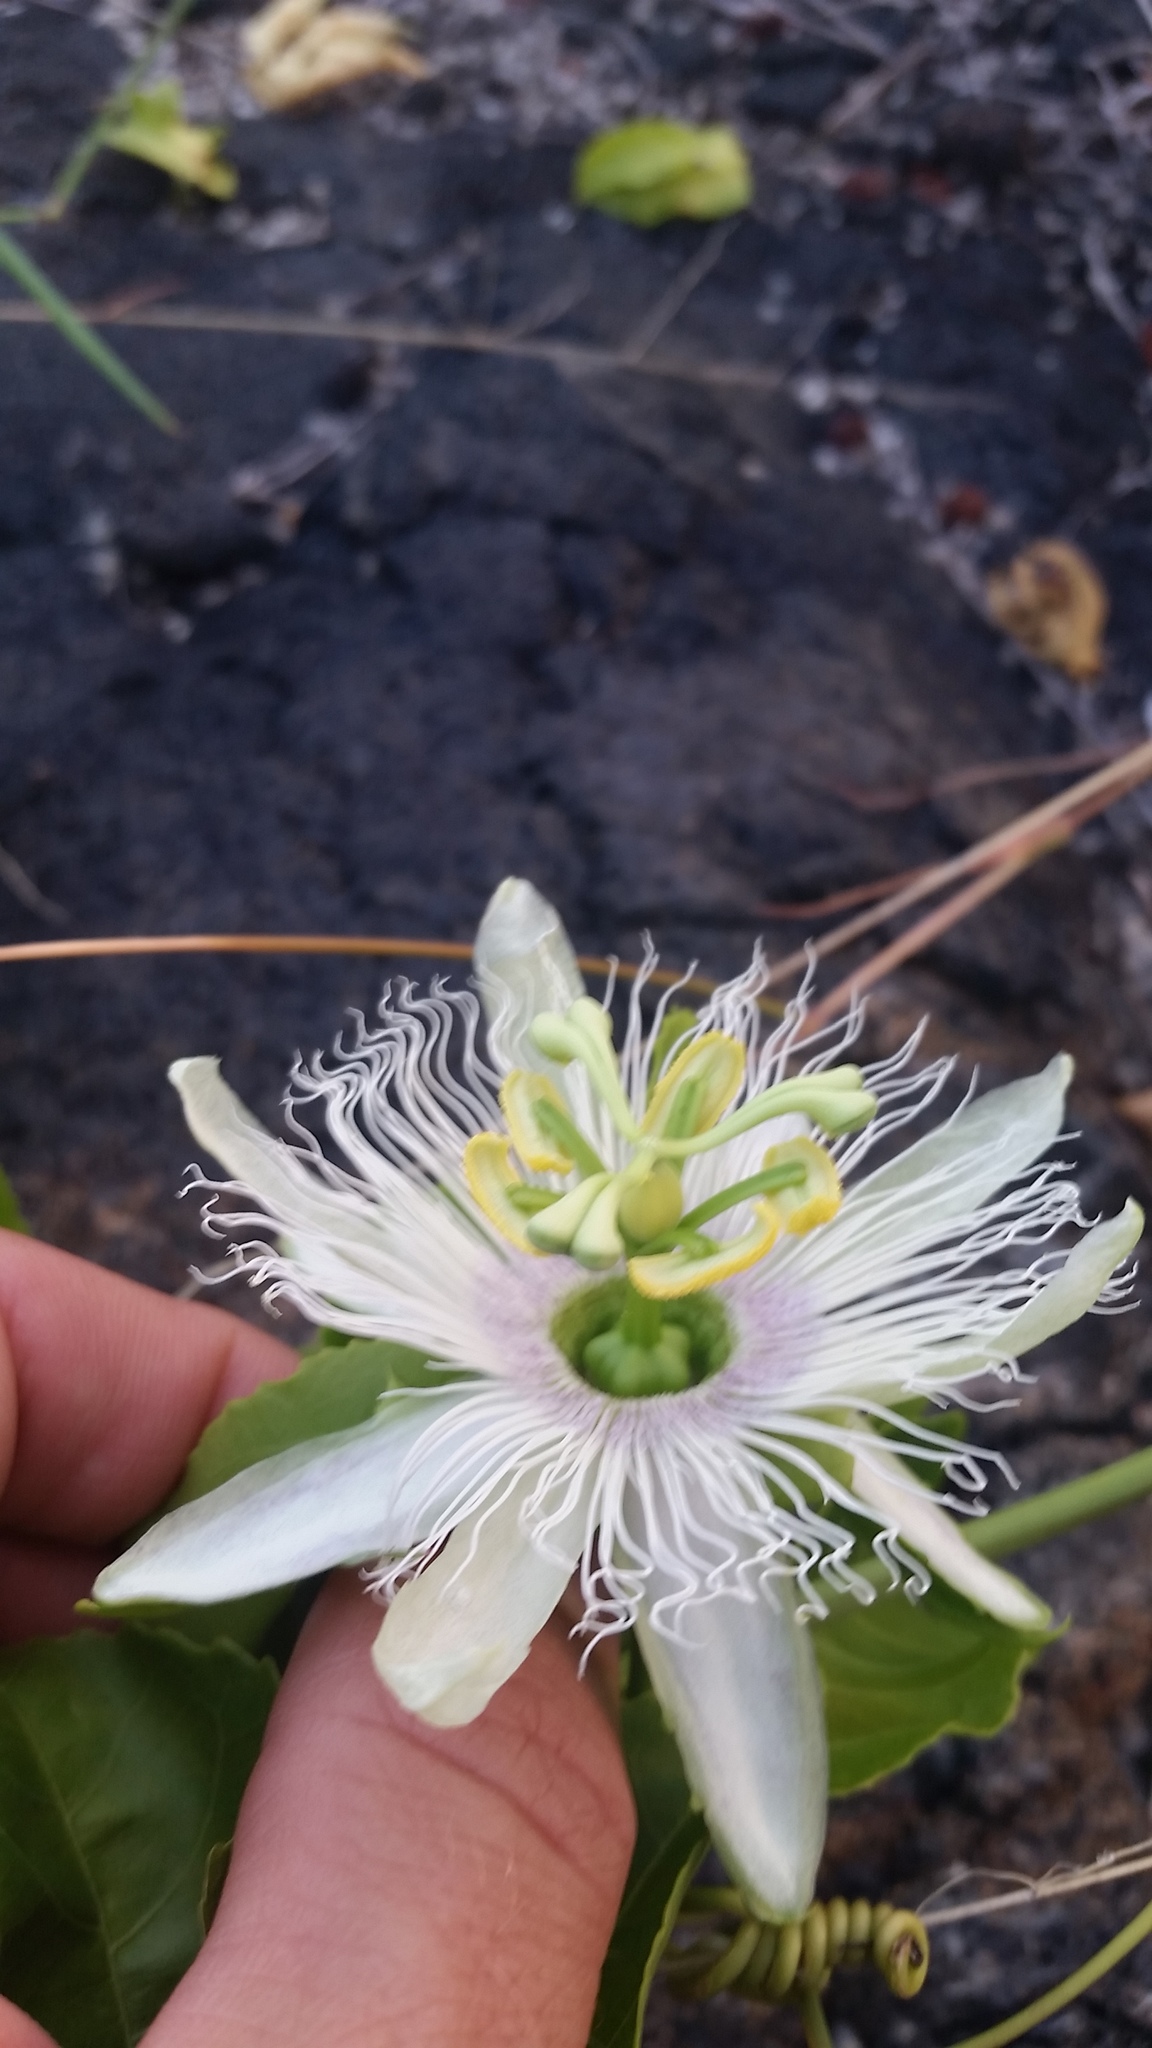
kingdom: Plantae
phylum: Tracheophyta
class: Magnoliopsida
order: Malpighiales
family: Passifloraceae
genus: Passiflora
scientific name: Passiflora edulis
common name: Purple granadilla
